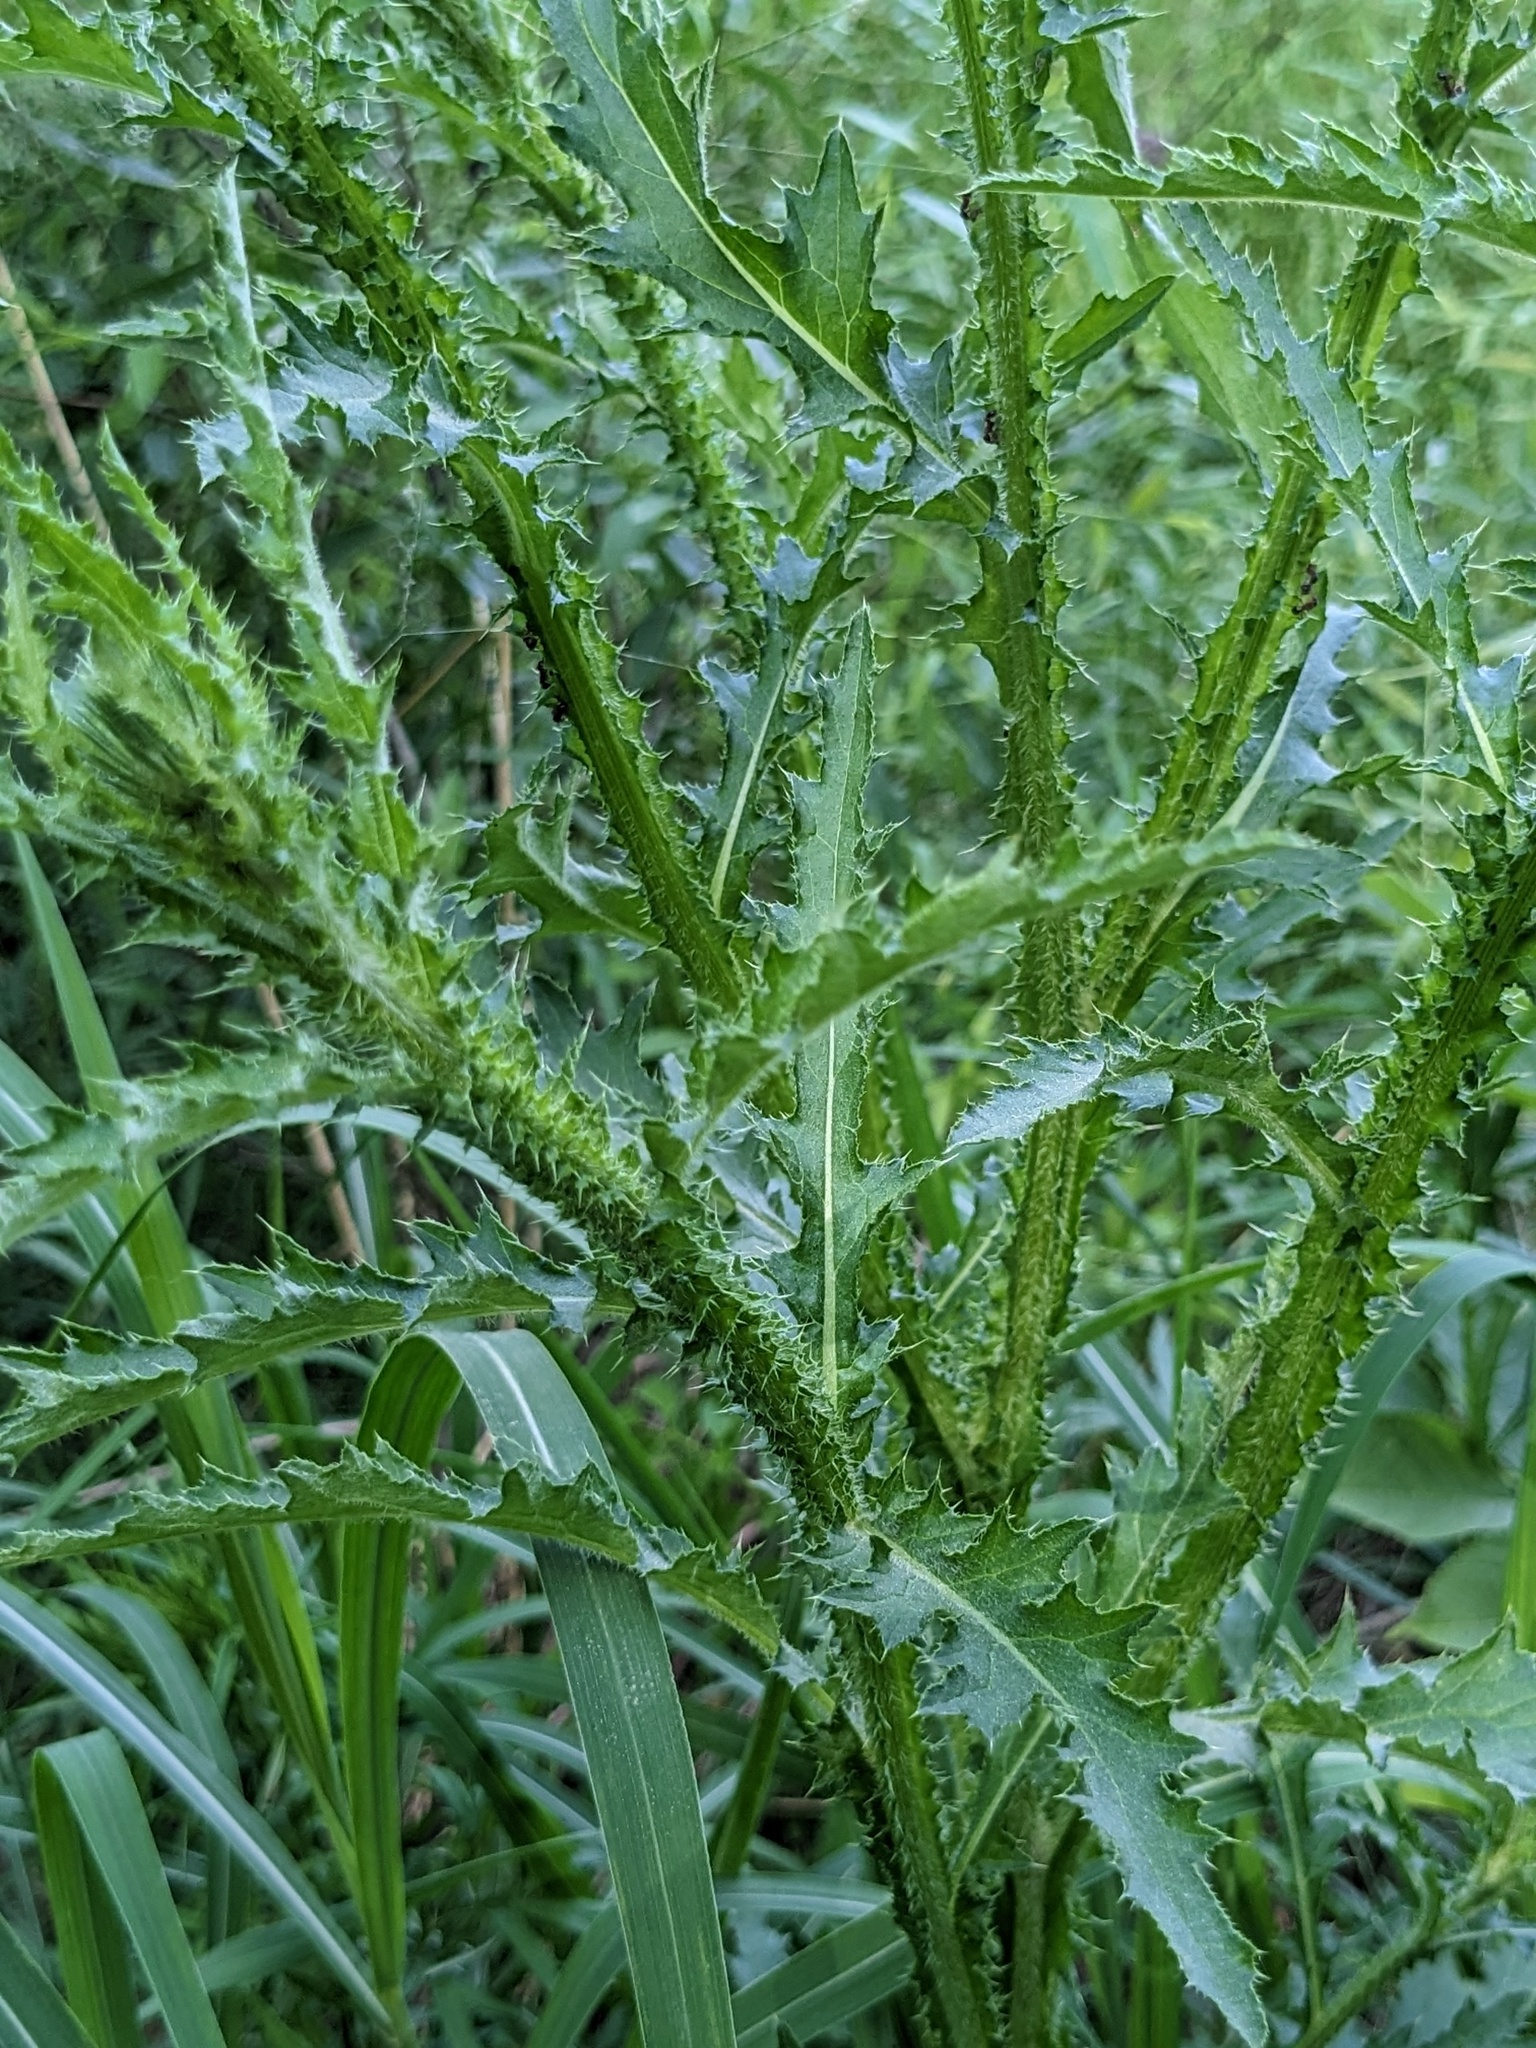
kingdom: Plantae
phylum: Tracheophyta
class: Magnoliopsida
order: Asterales
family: Asteraceae
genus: Carduus
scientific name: Carduus crispus
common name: Welted thistle
